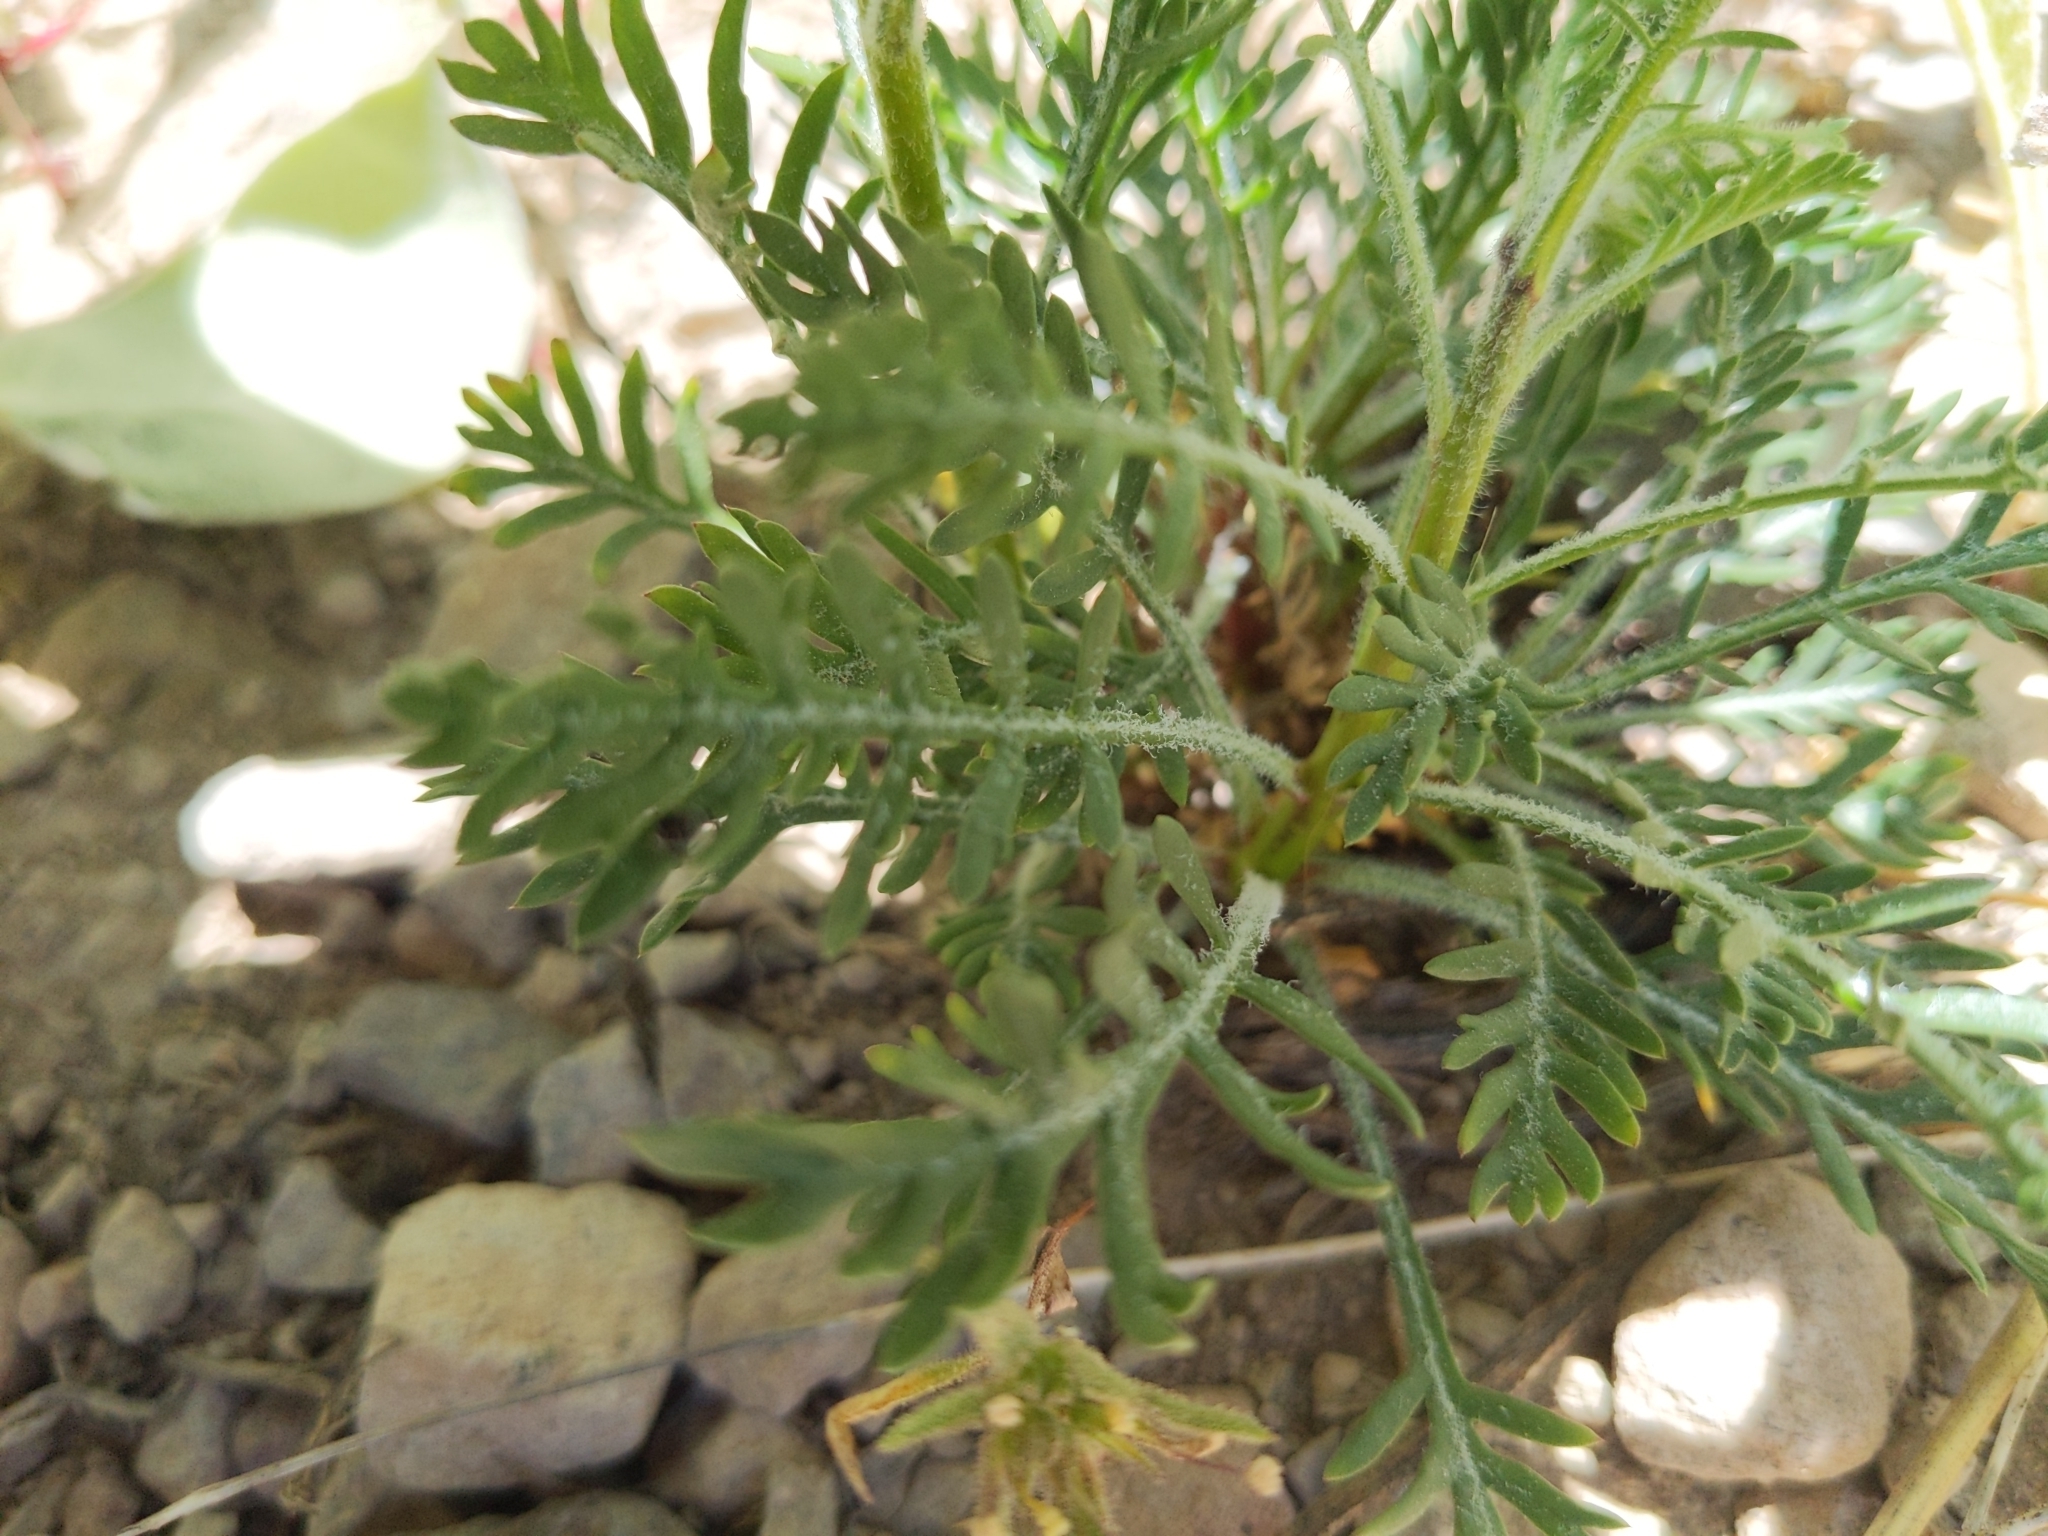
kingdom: Plantae
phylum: Tracheophyta
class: Magnoliopsida
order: Ericales
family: Polemoniaceae
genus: Ipomopsis
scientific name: Ipomopsis aggregata
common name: Scarlet gilia
